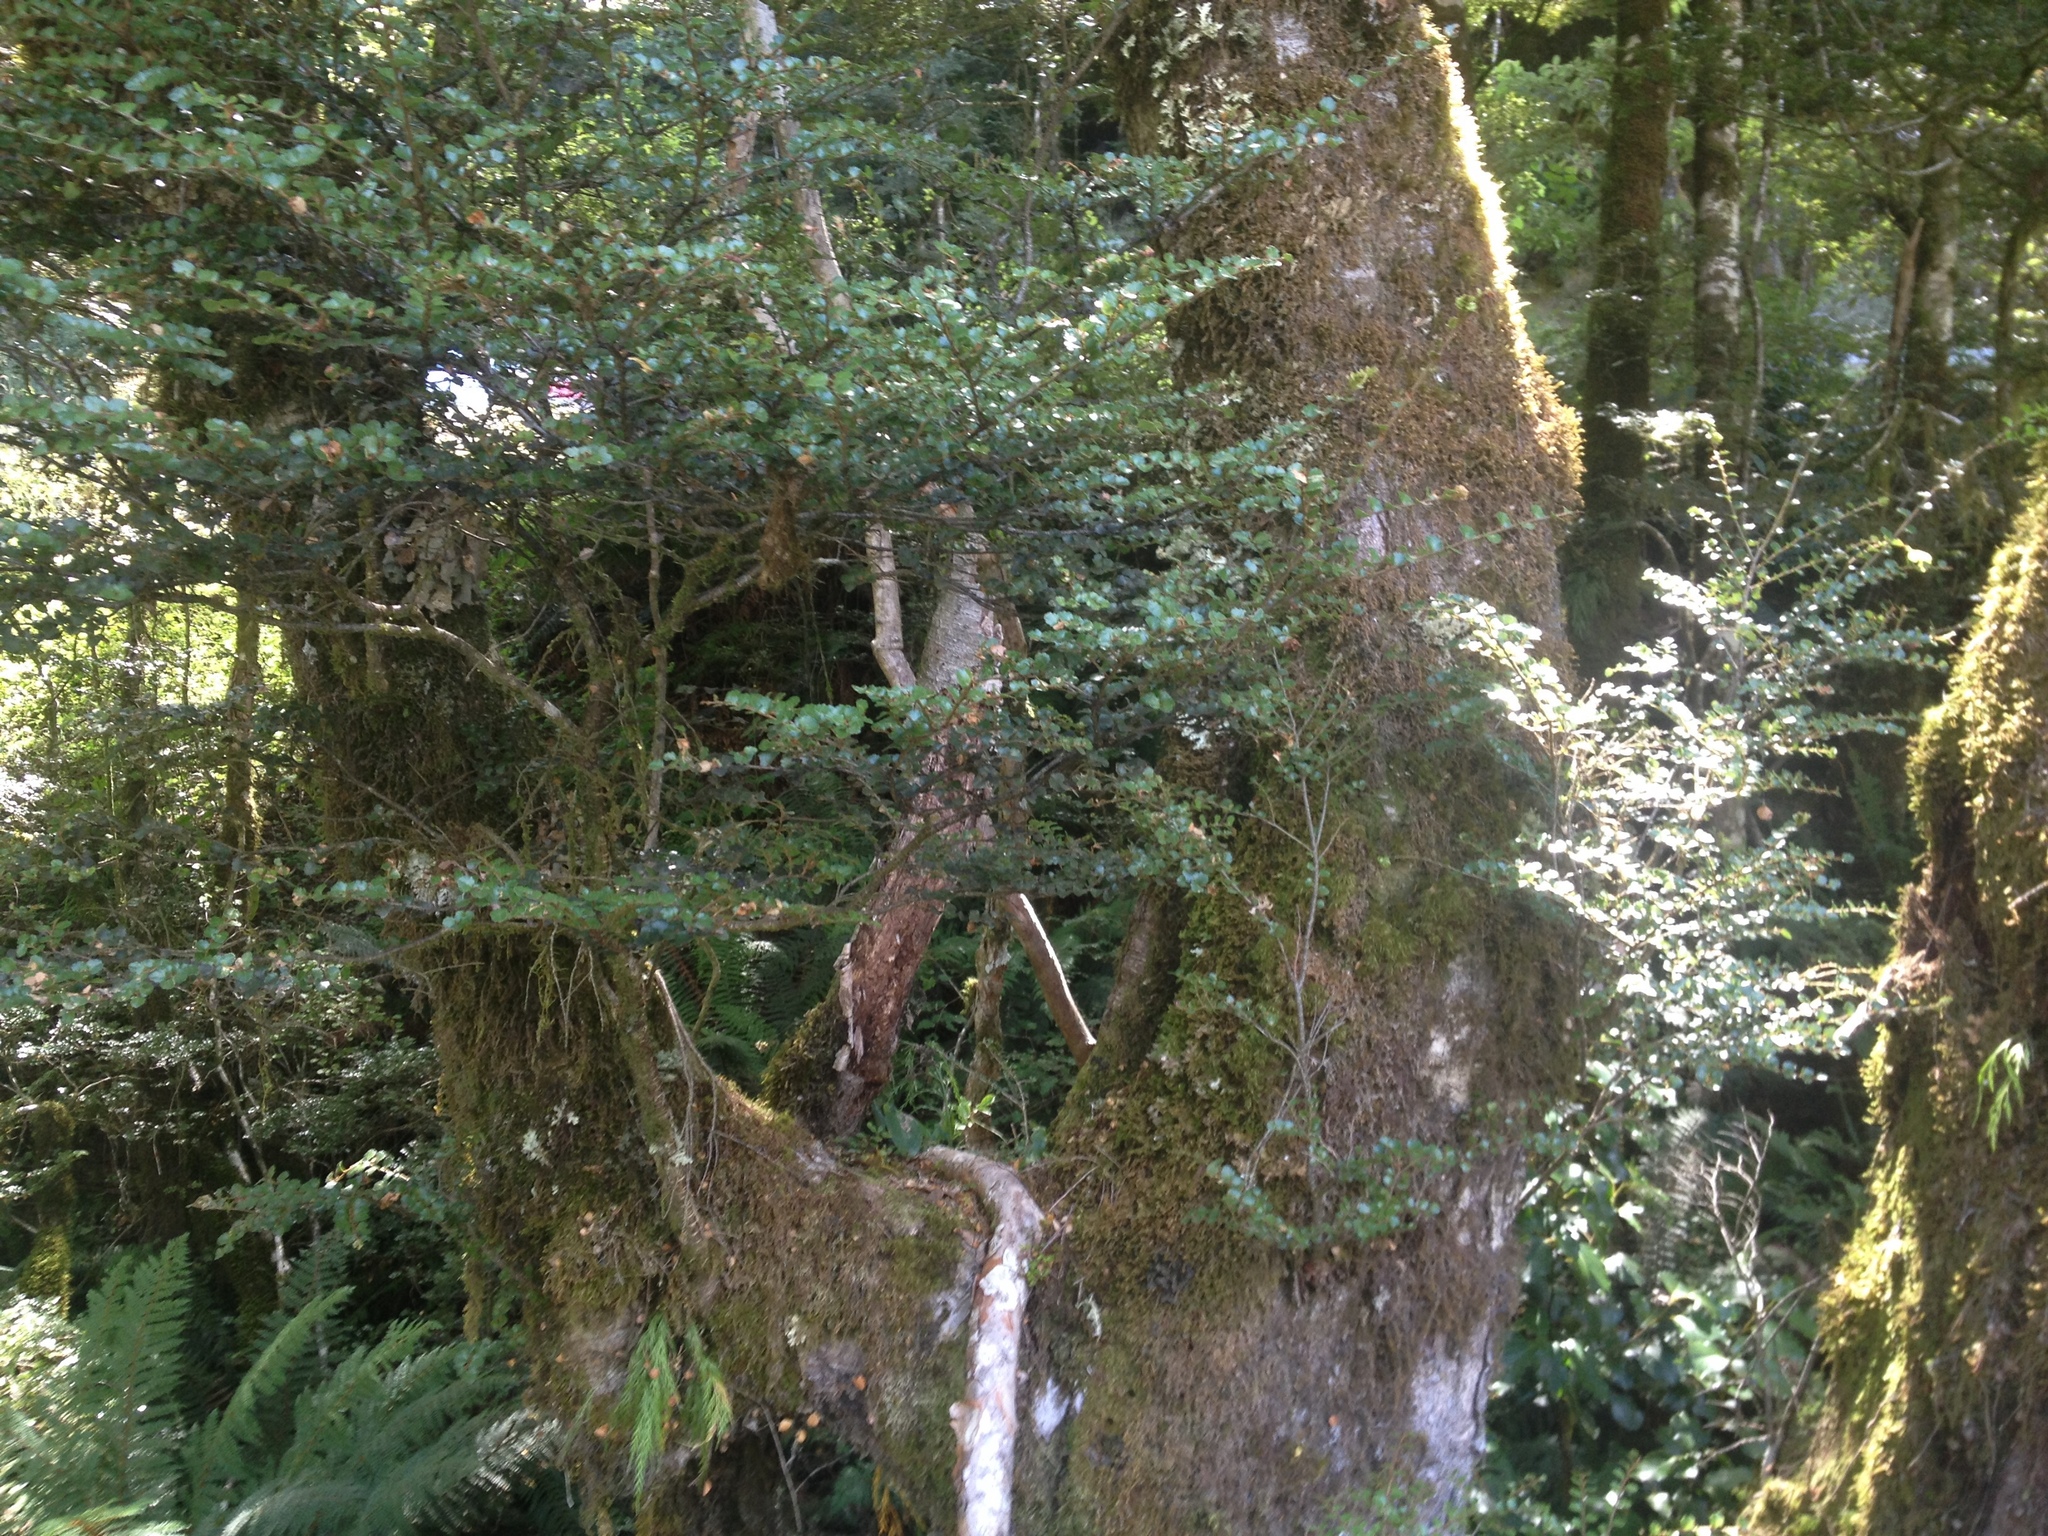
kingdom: Plantae
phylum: Tracheophyta
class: Magnoliopsida
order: Fagales
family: Nothofagaceae
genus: Nothofagus
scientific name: Nothofagus menziesii
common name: Silver beech
